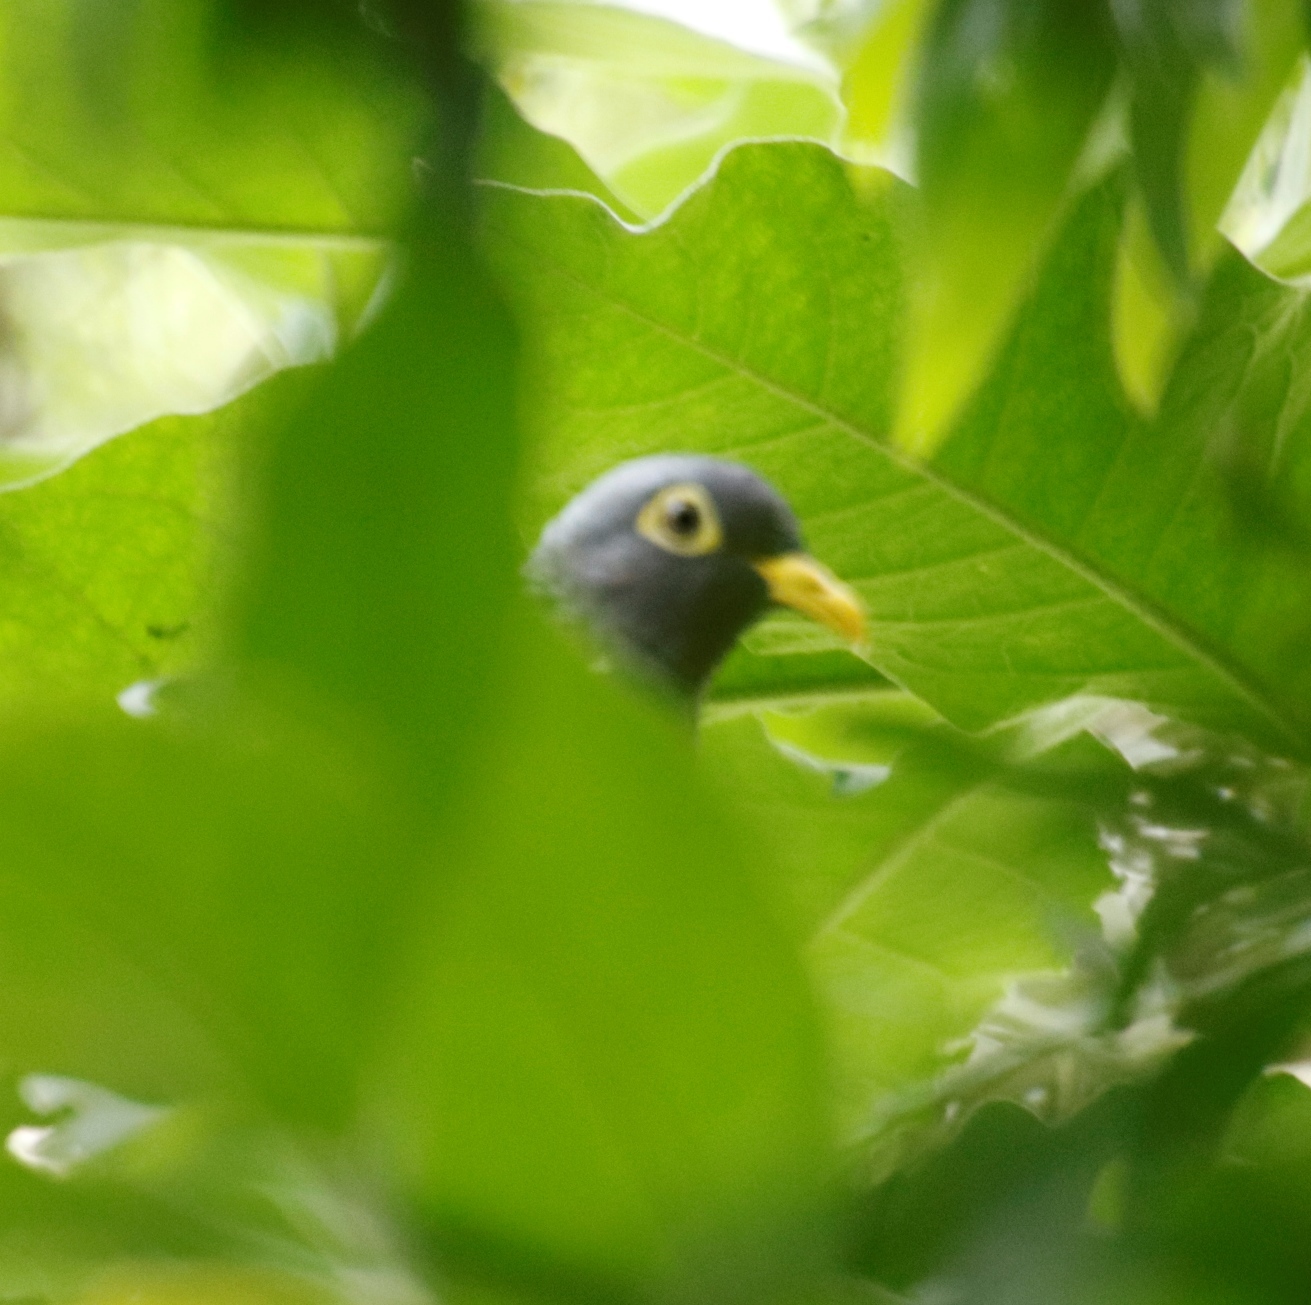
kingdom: Animalia
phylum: Chordata
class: Aves
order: Columbiformes
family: Columbidae
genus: Columba
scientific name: Columba arquatrix
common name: African olive pigeon
